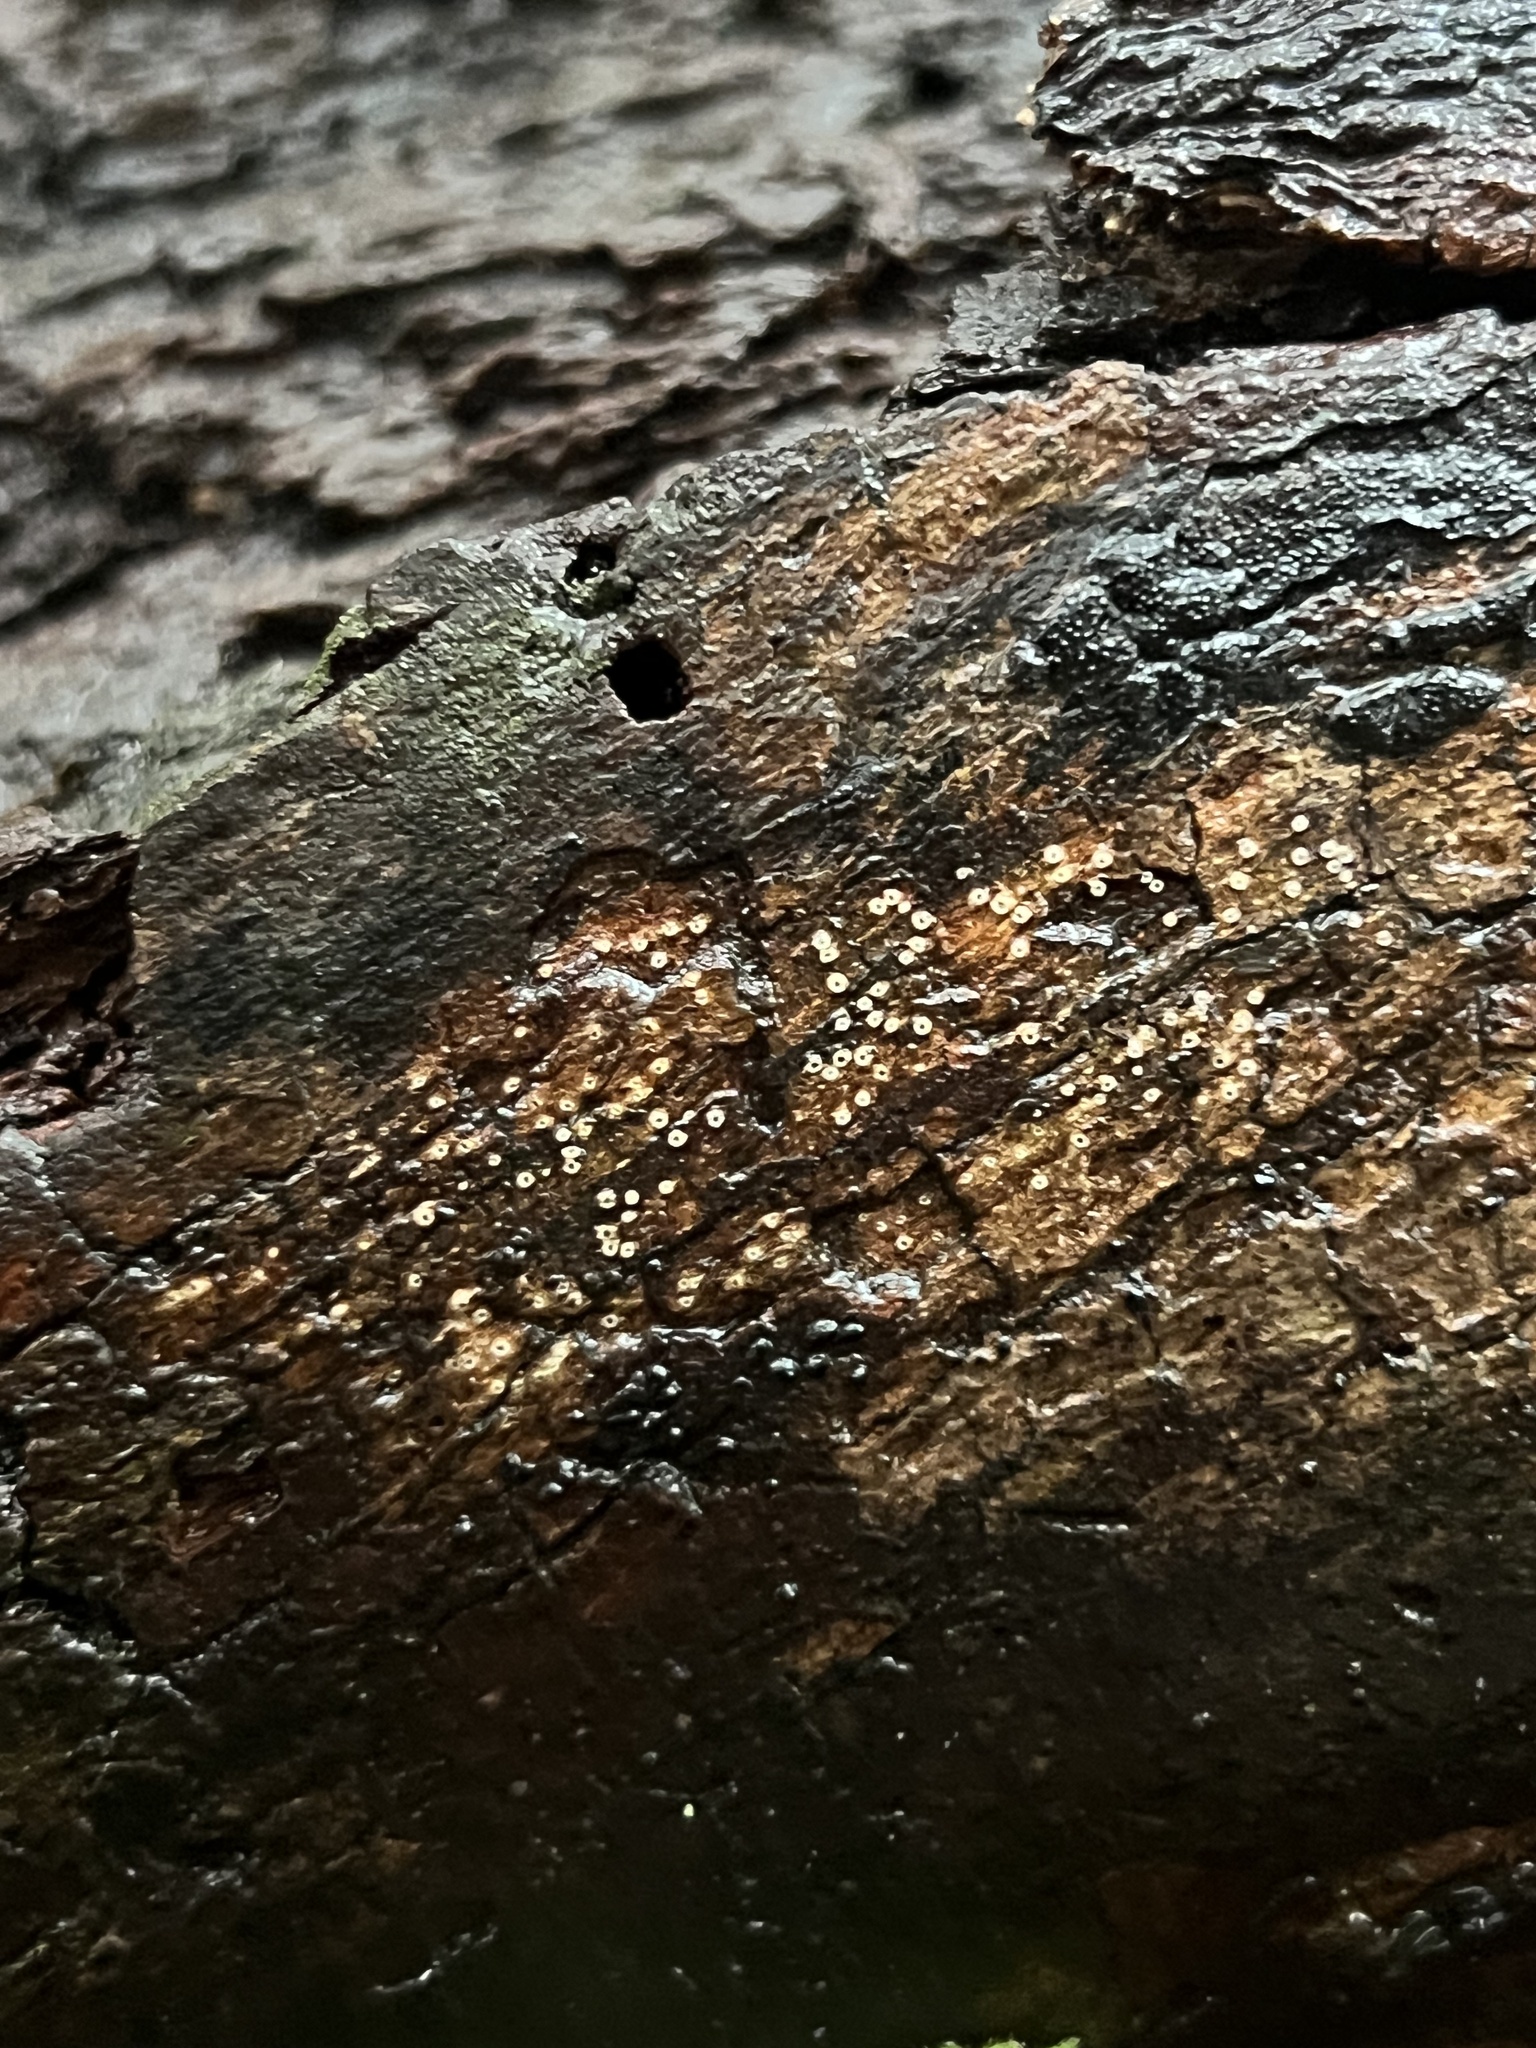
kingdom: Fungi
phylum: Ascomycota
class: Lecanoromycetes
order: Ostropales
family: Stictidaceae
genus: Stictis
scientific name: Stictis radiata
